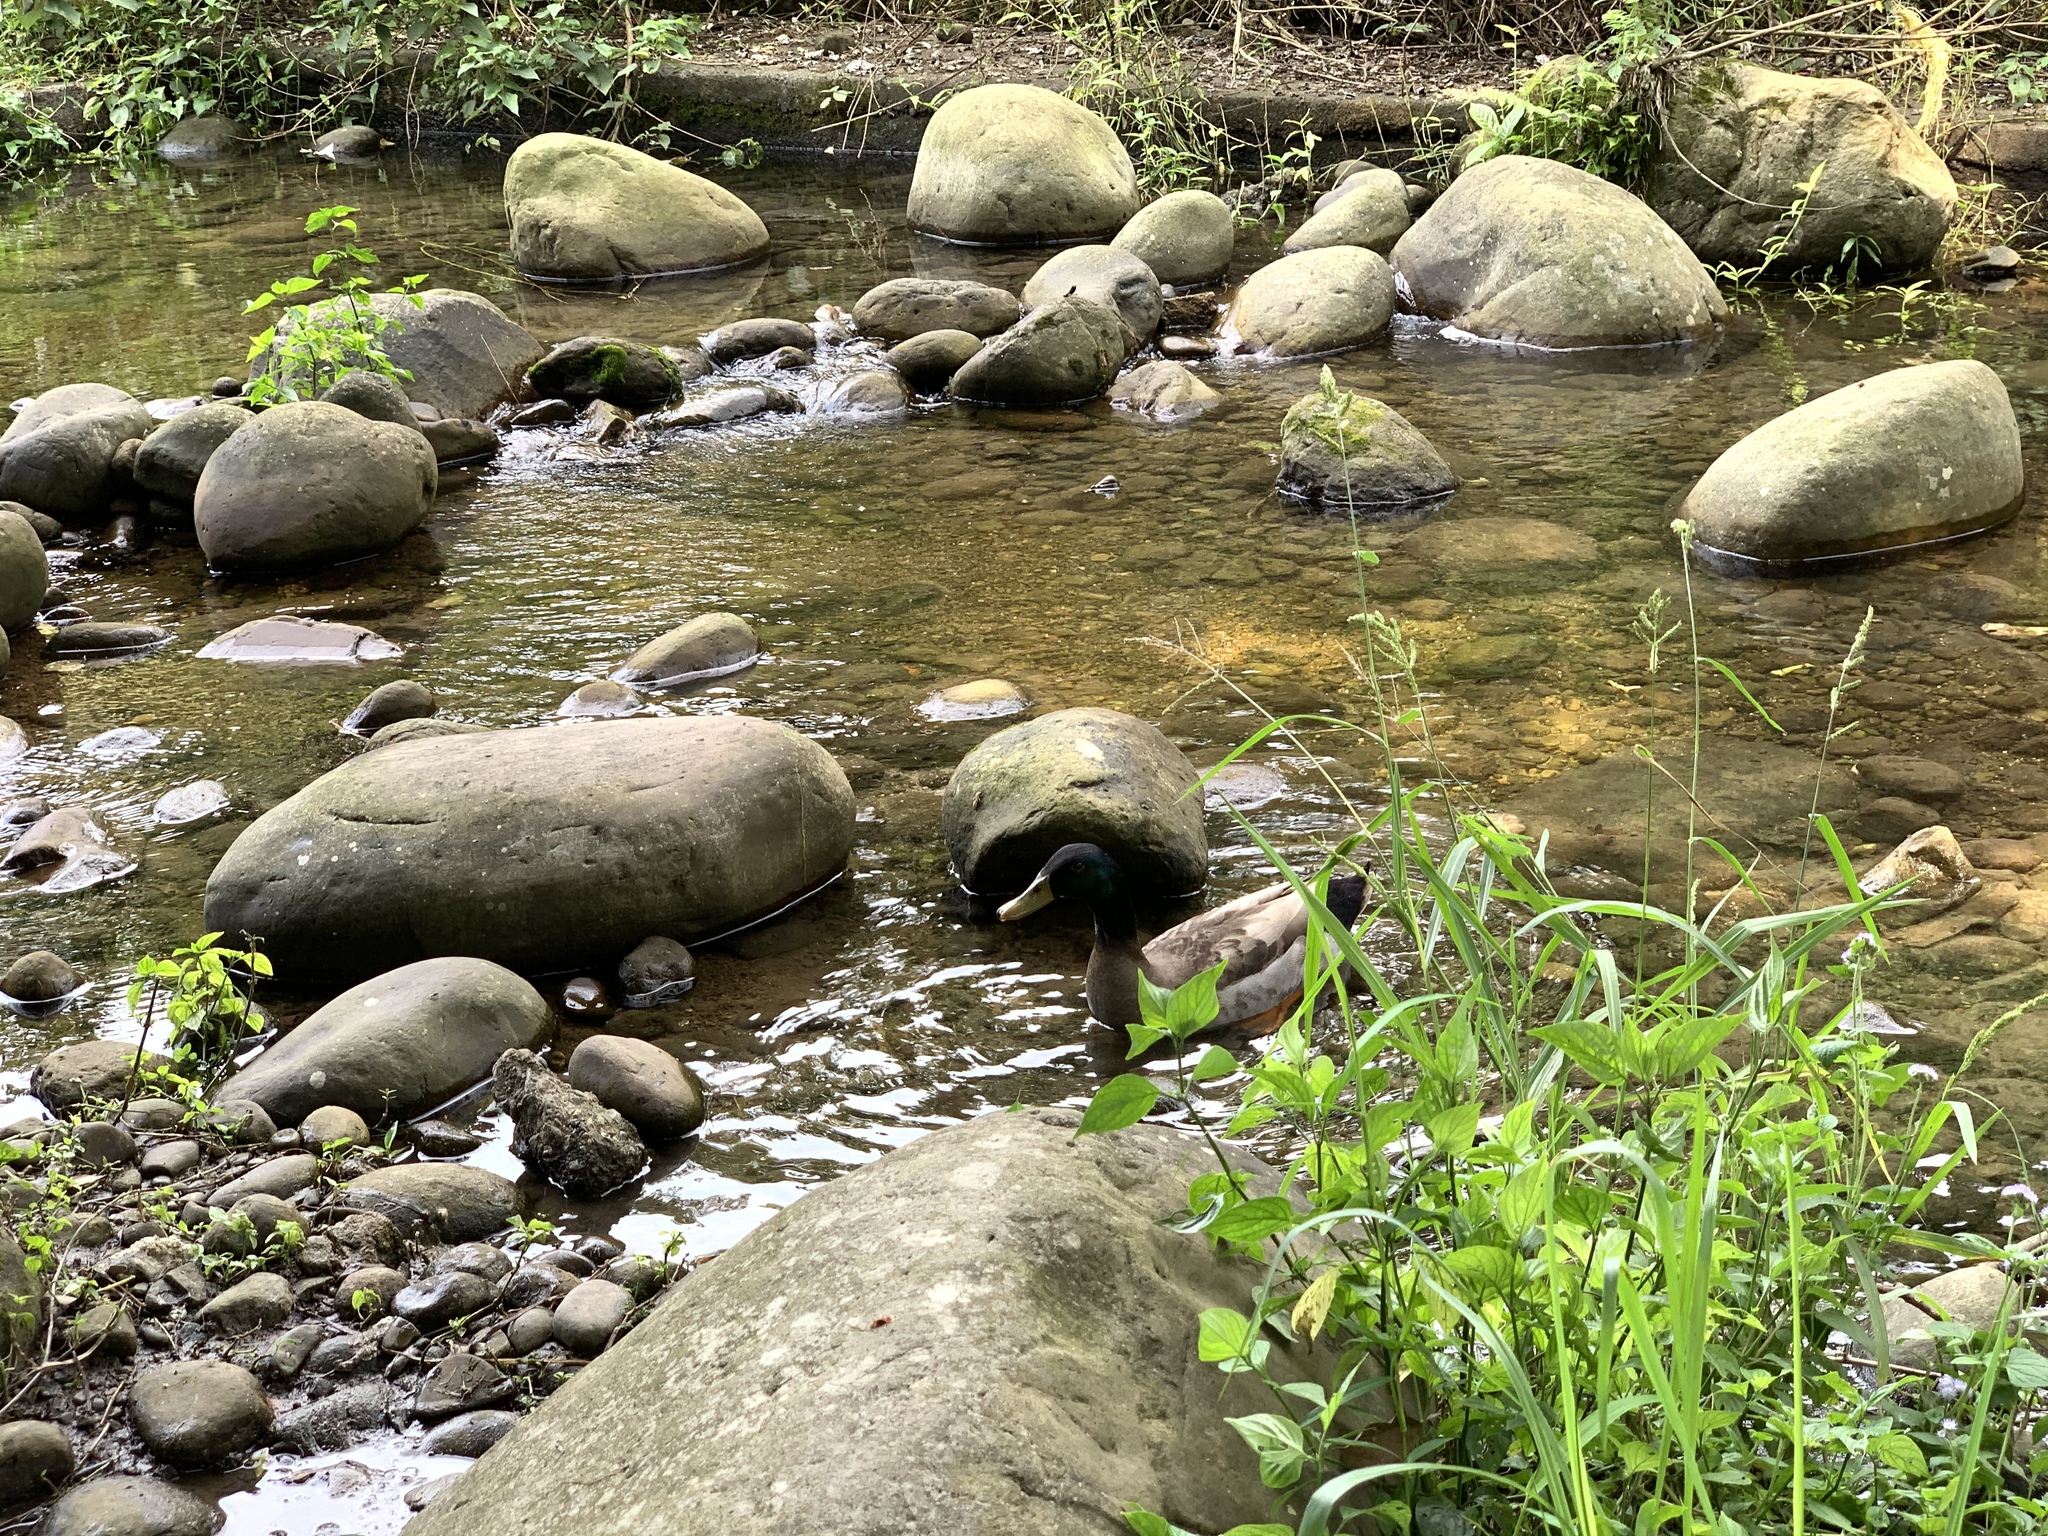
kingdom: Animalia
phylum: Chordata
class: Aves
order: Anseriformes
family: Anatidae
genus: Anas
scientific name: Anas platyrhynchos
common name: Mallard
